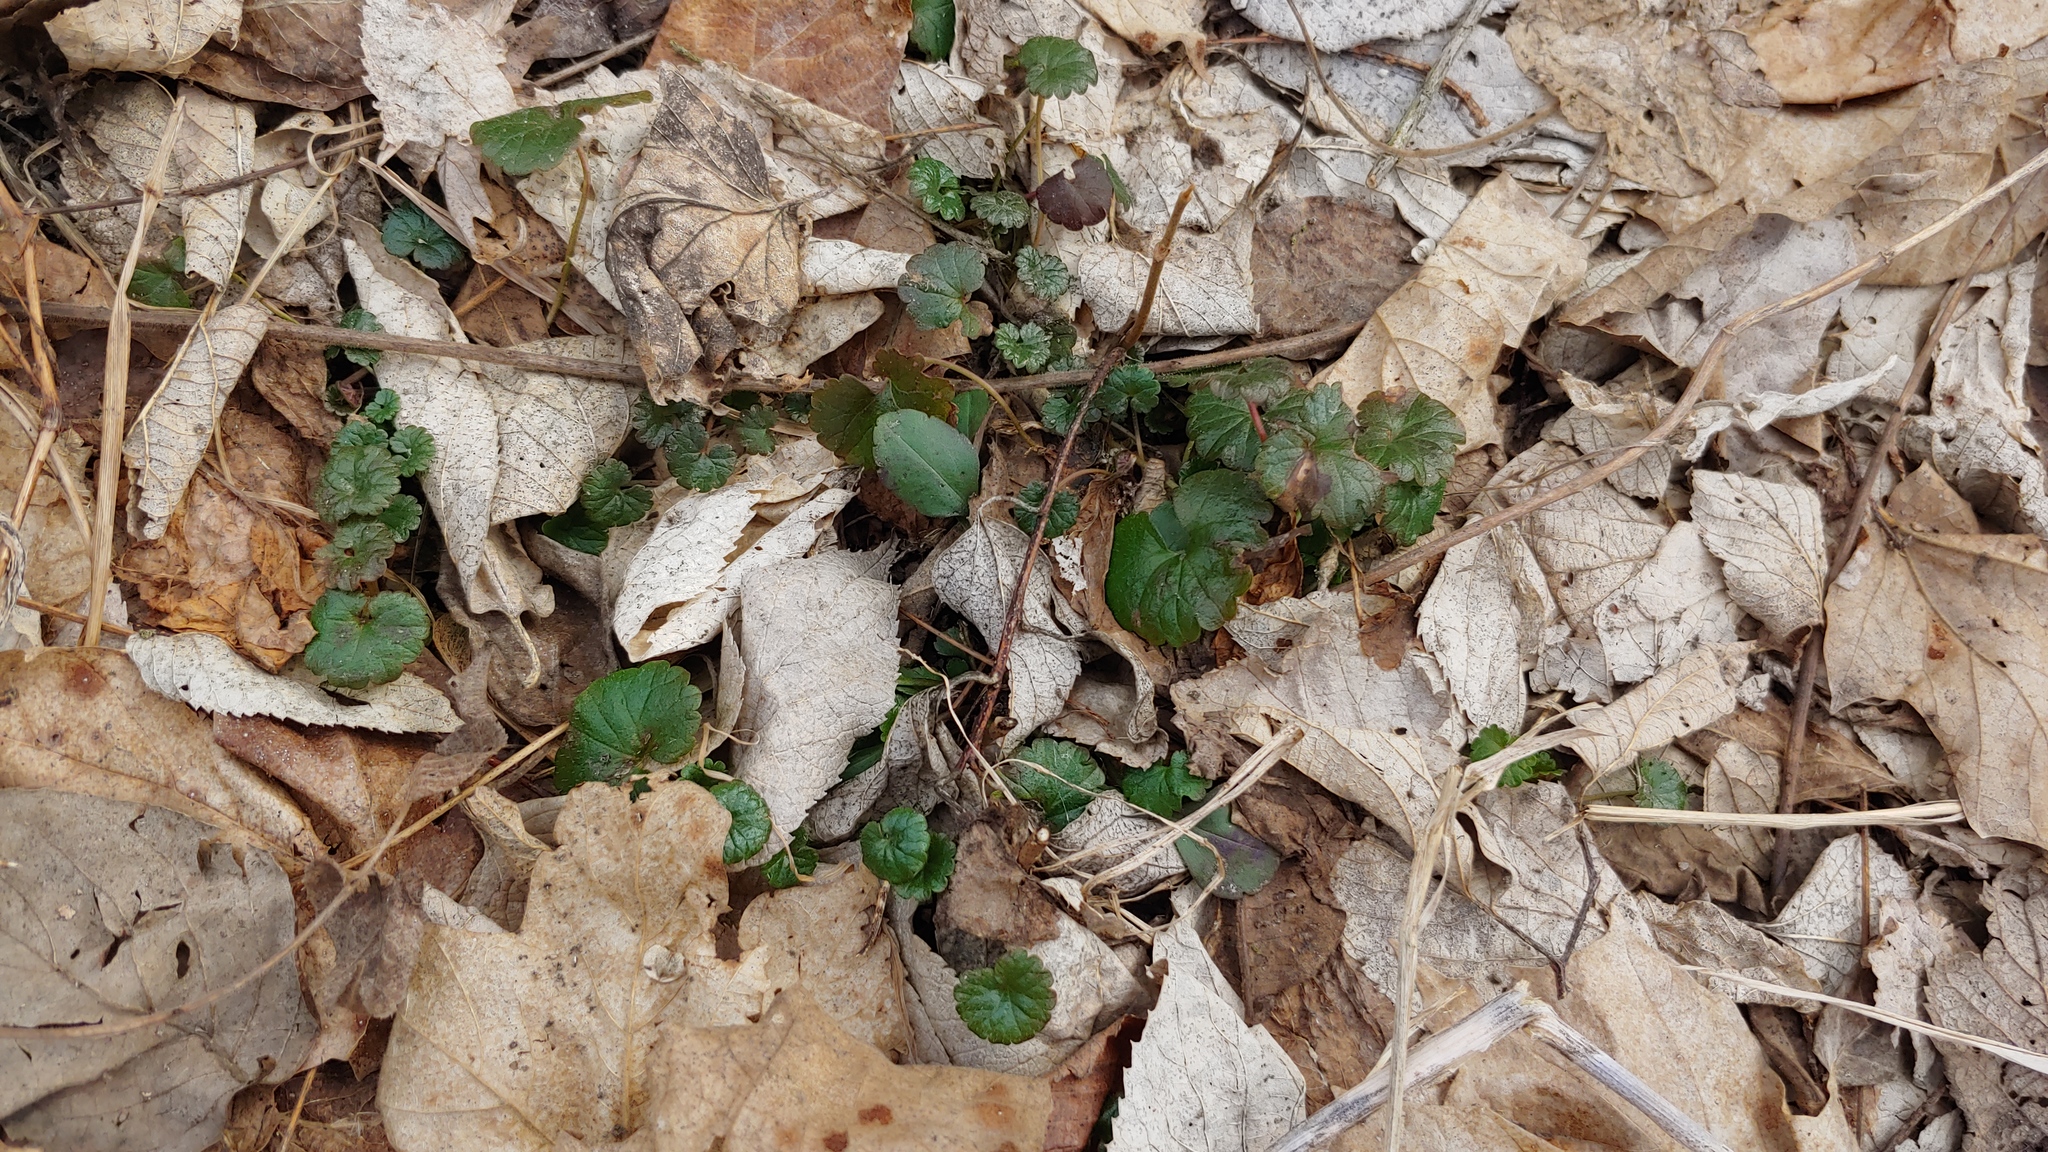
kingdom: Plantae
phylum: Tracheophyta
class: Magnoliopsida
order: Lamiales
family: Lamiaceae
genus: Glechoma
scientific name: Glechoma hederacea
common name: Ground ivy
